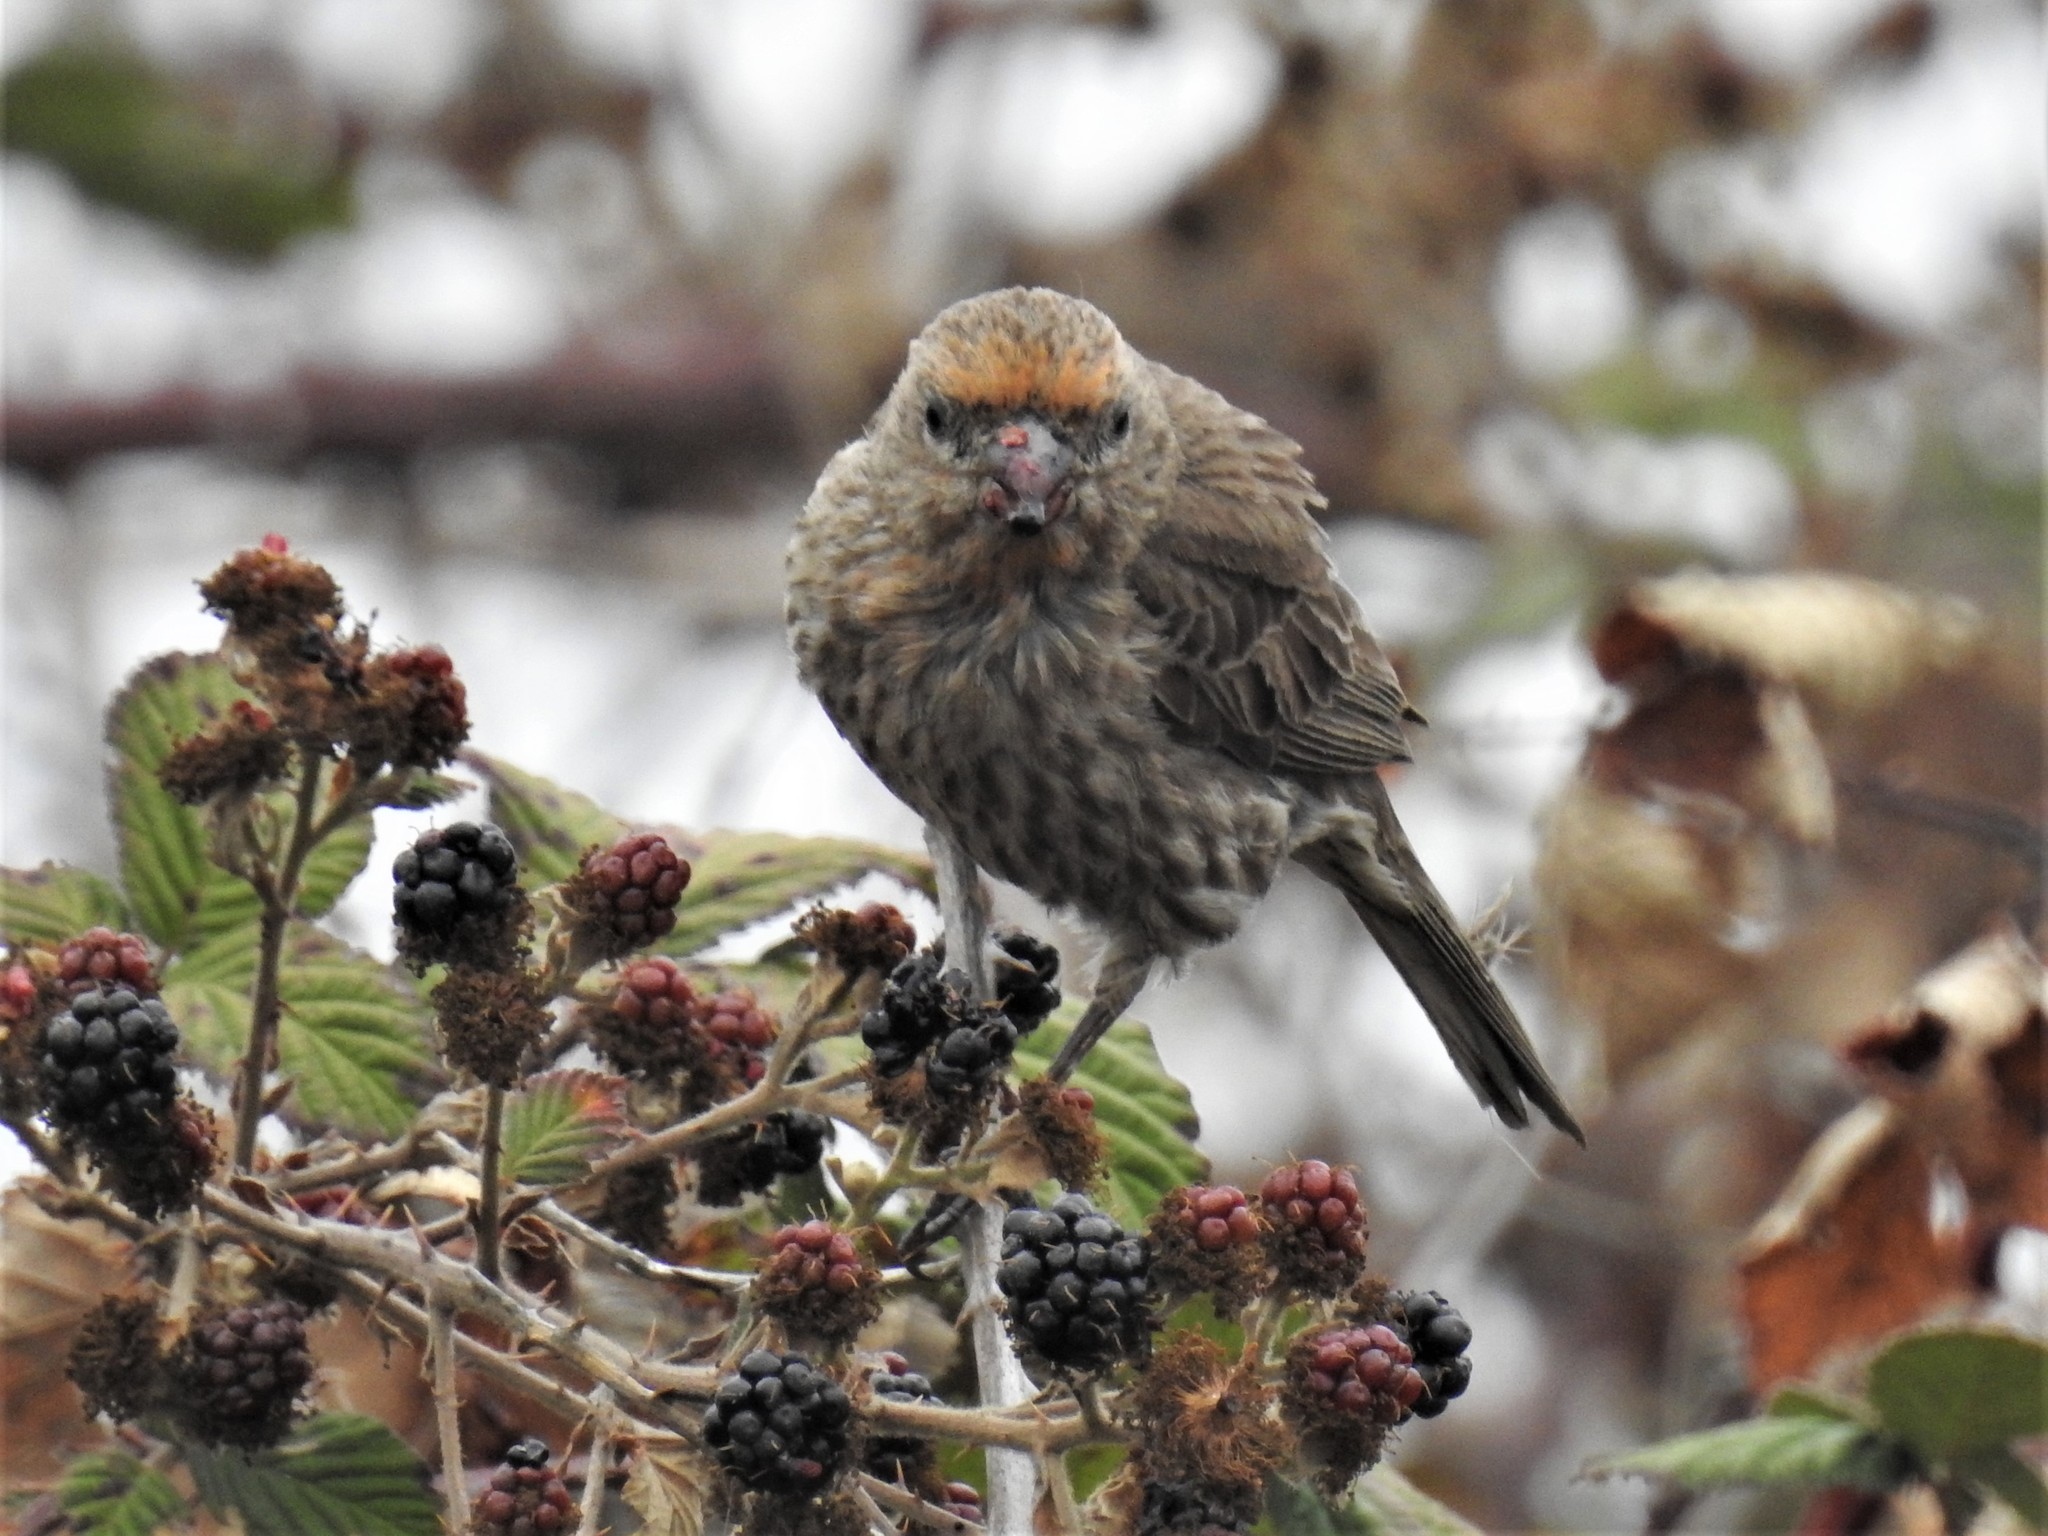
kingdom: Animalia
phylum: Chordata
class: Aves
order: Passeriformes
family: Fringillidae
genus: Haemorhous
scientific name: Haemorhous mexicanus
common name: House finch
